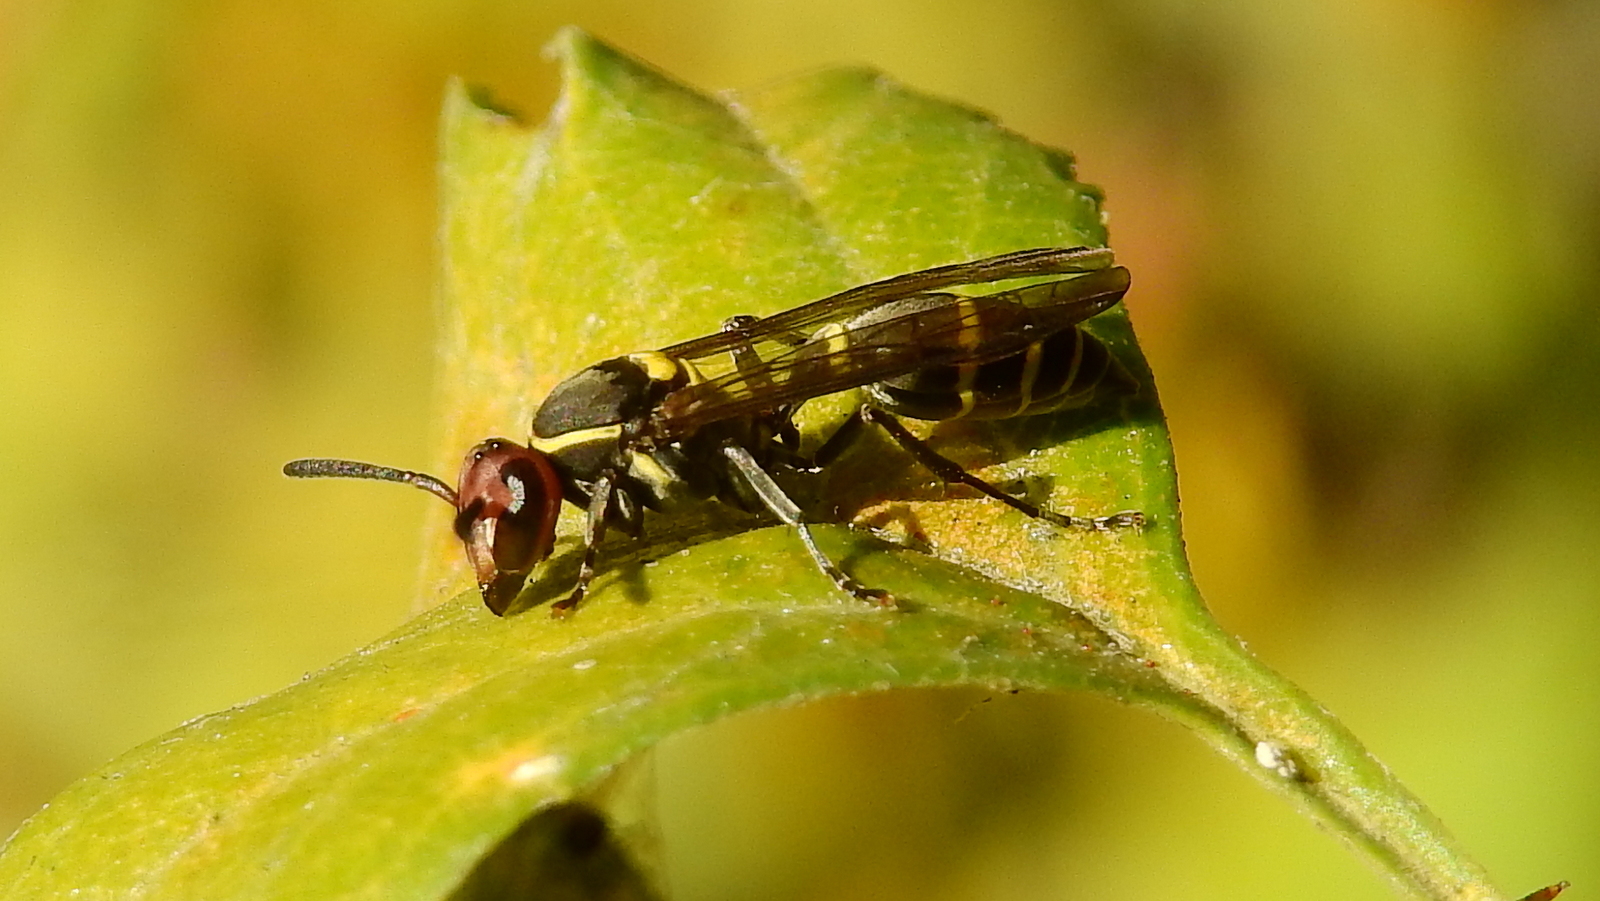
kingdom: Animalia
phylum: Arthropoda
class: Insecta
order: Hymenoptera
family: Eumenidae
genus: Polybia
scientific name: Polybia ruficeps
